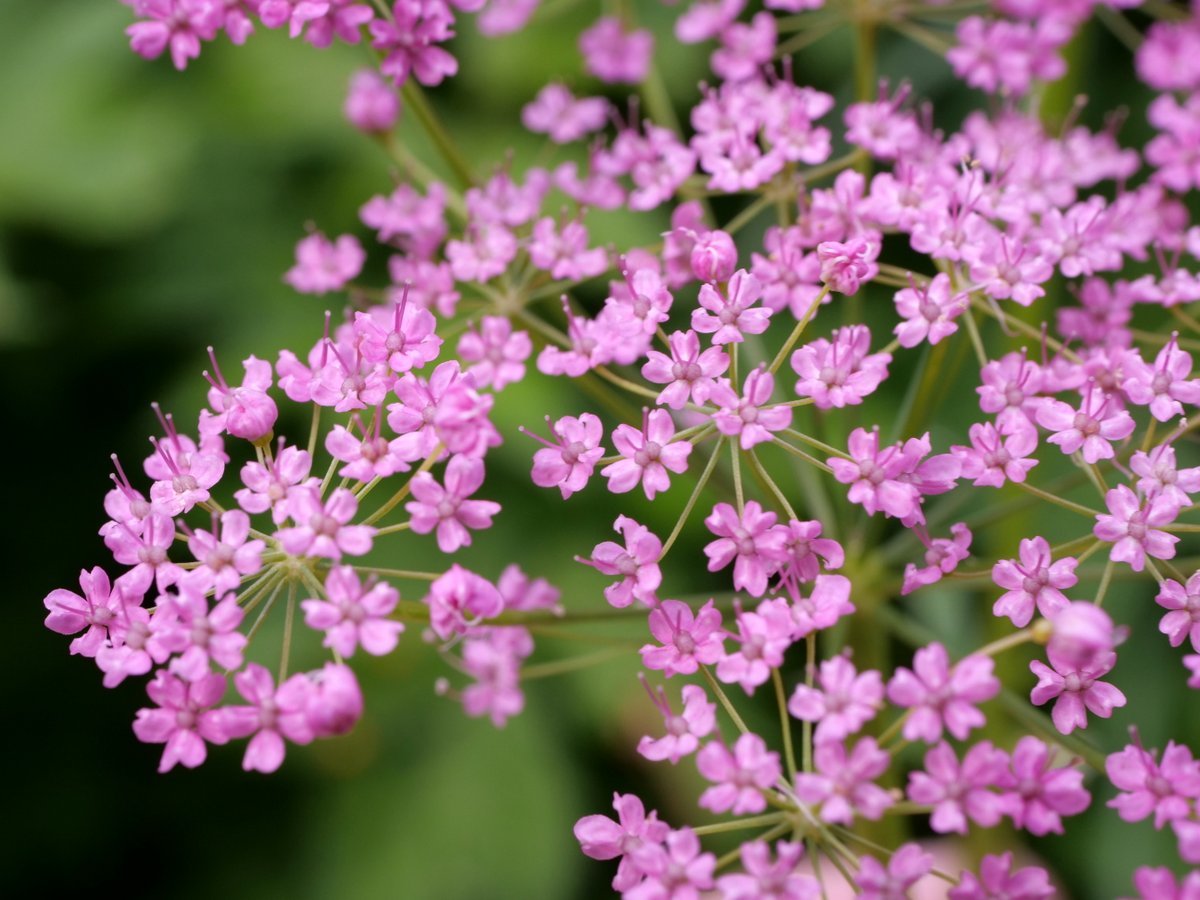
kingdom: Plantae
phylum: Tracheophyta
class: Magnoliopsida
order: Apiales
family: Apiaceae
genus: Pimpinella
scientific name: Pimpinella major
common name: Greater burnet-saxifrage
